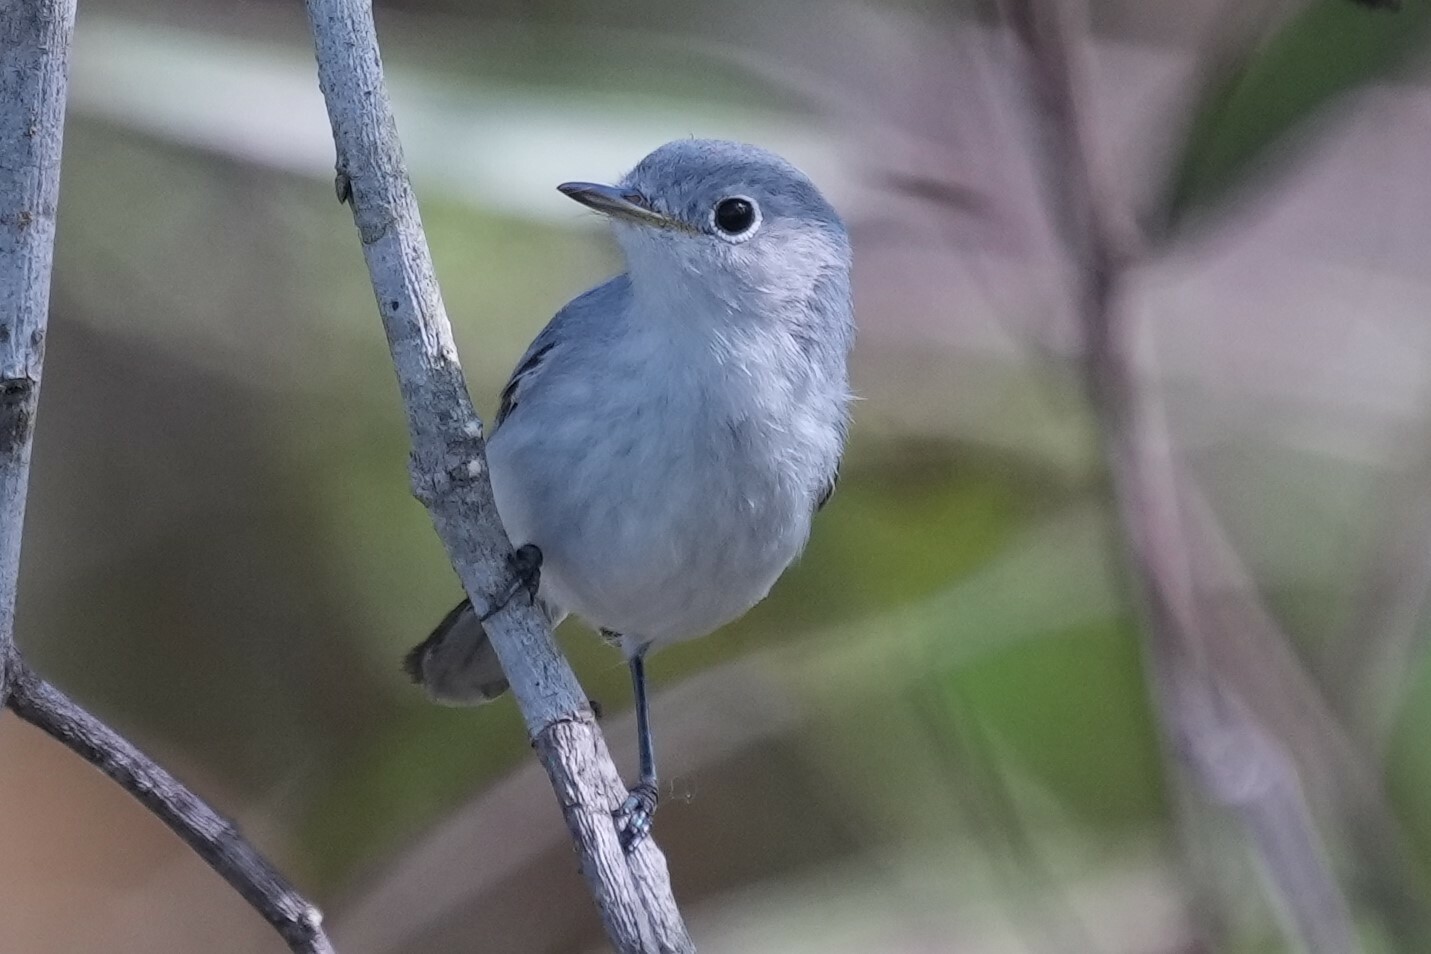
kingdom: Animalia
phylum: Chordata
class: Aves
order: Passeriformes
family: Polioptilidae
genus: Polioptila
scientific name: Polioptila caerulea
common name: Blue-gray gnatcatcher
